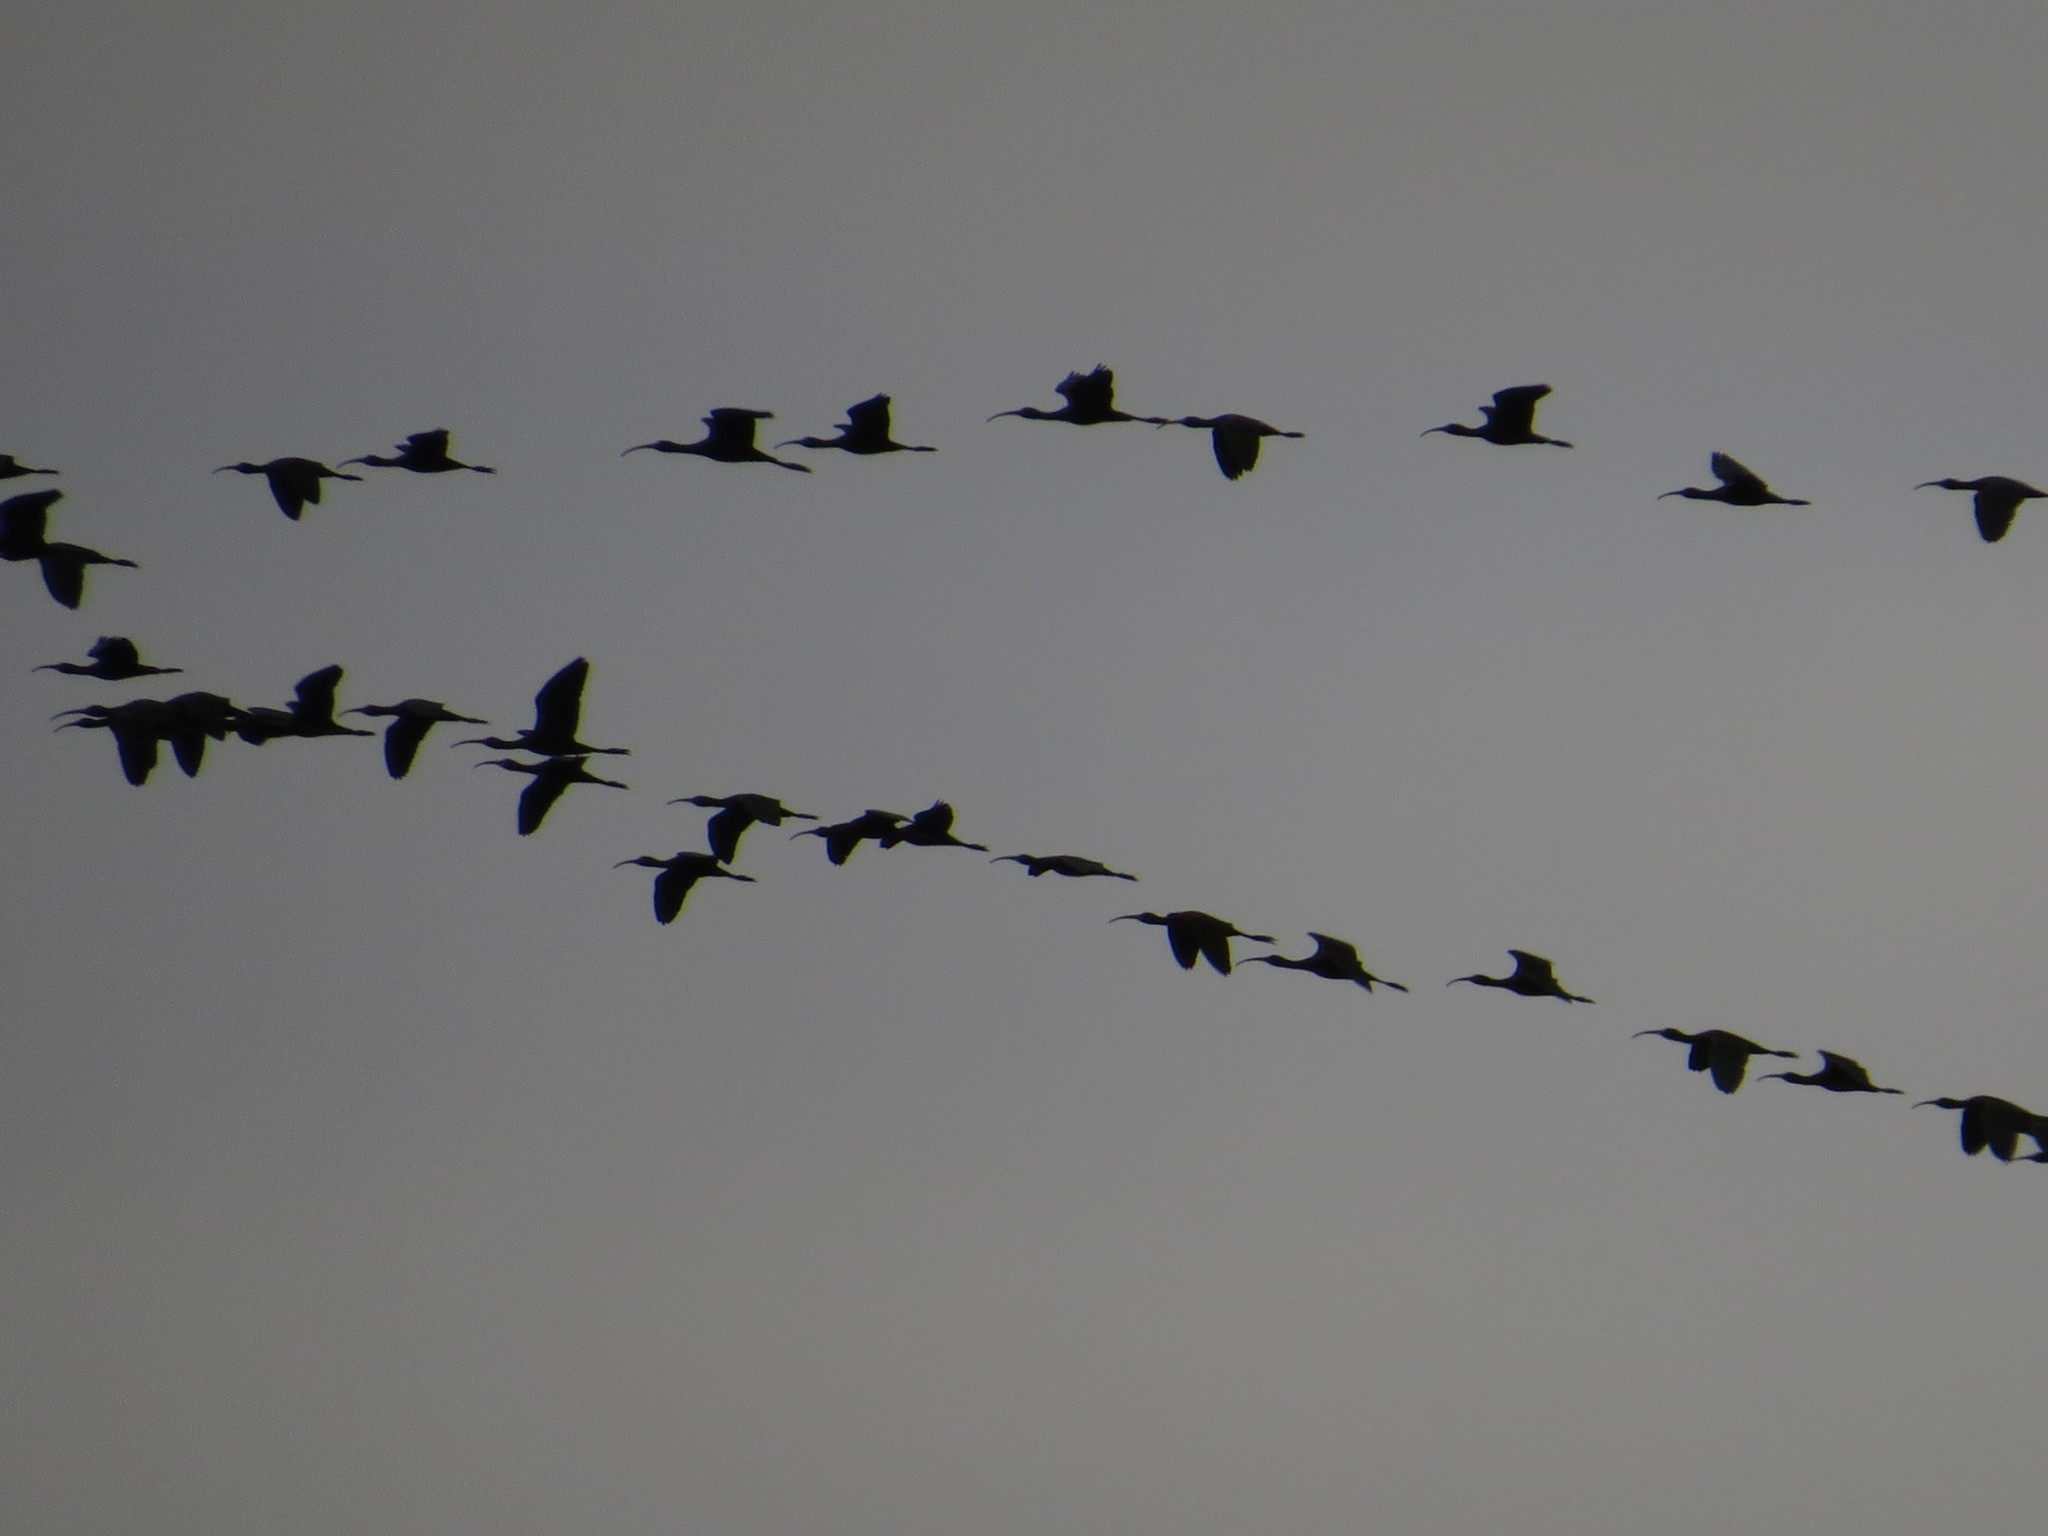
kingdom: Animalia
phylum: Chordata
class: Aves
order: Pelecaniformes
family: Threskiornithidae
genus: Plegadis
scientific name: Plegadis chihi
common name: White-faced ibis
